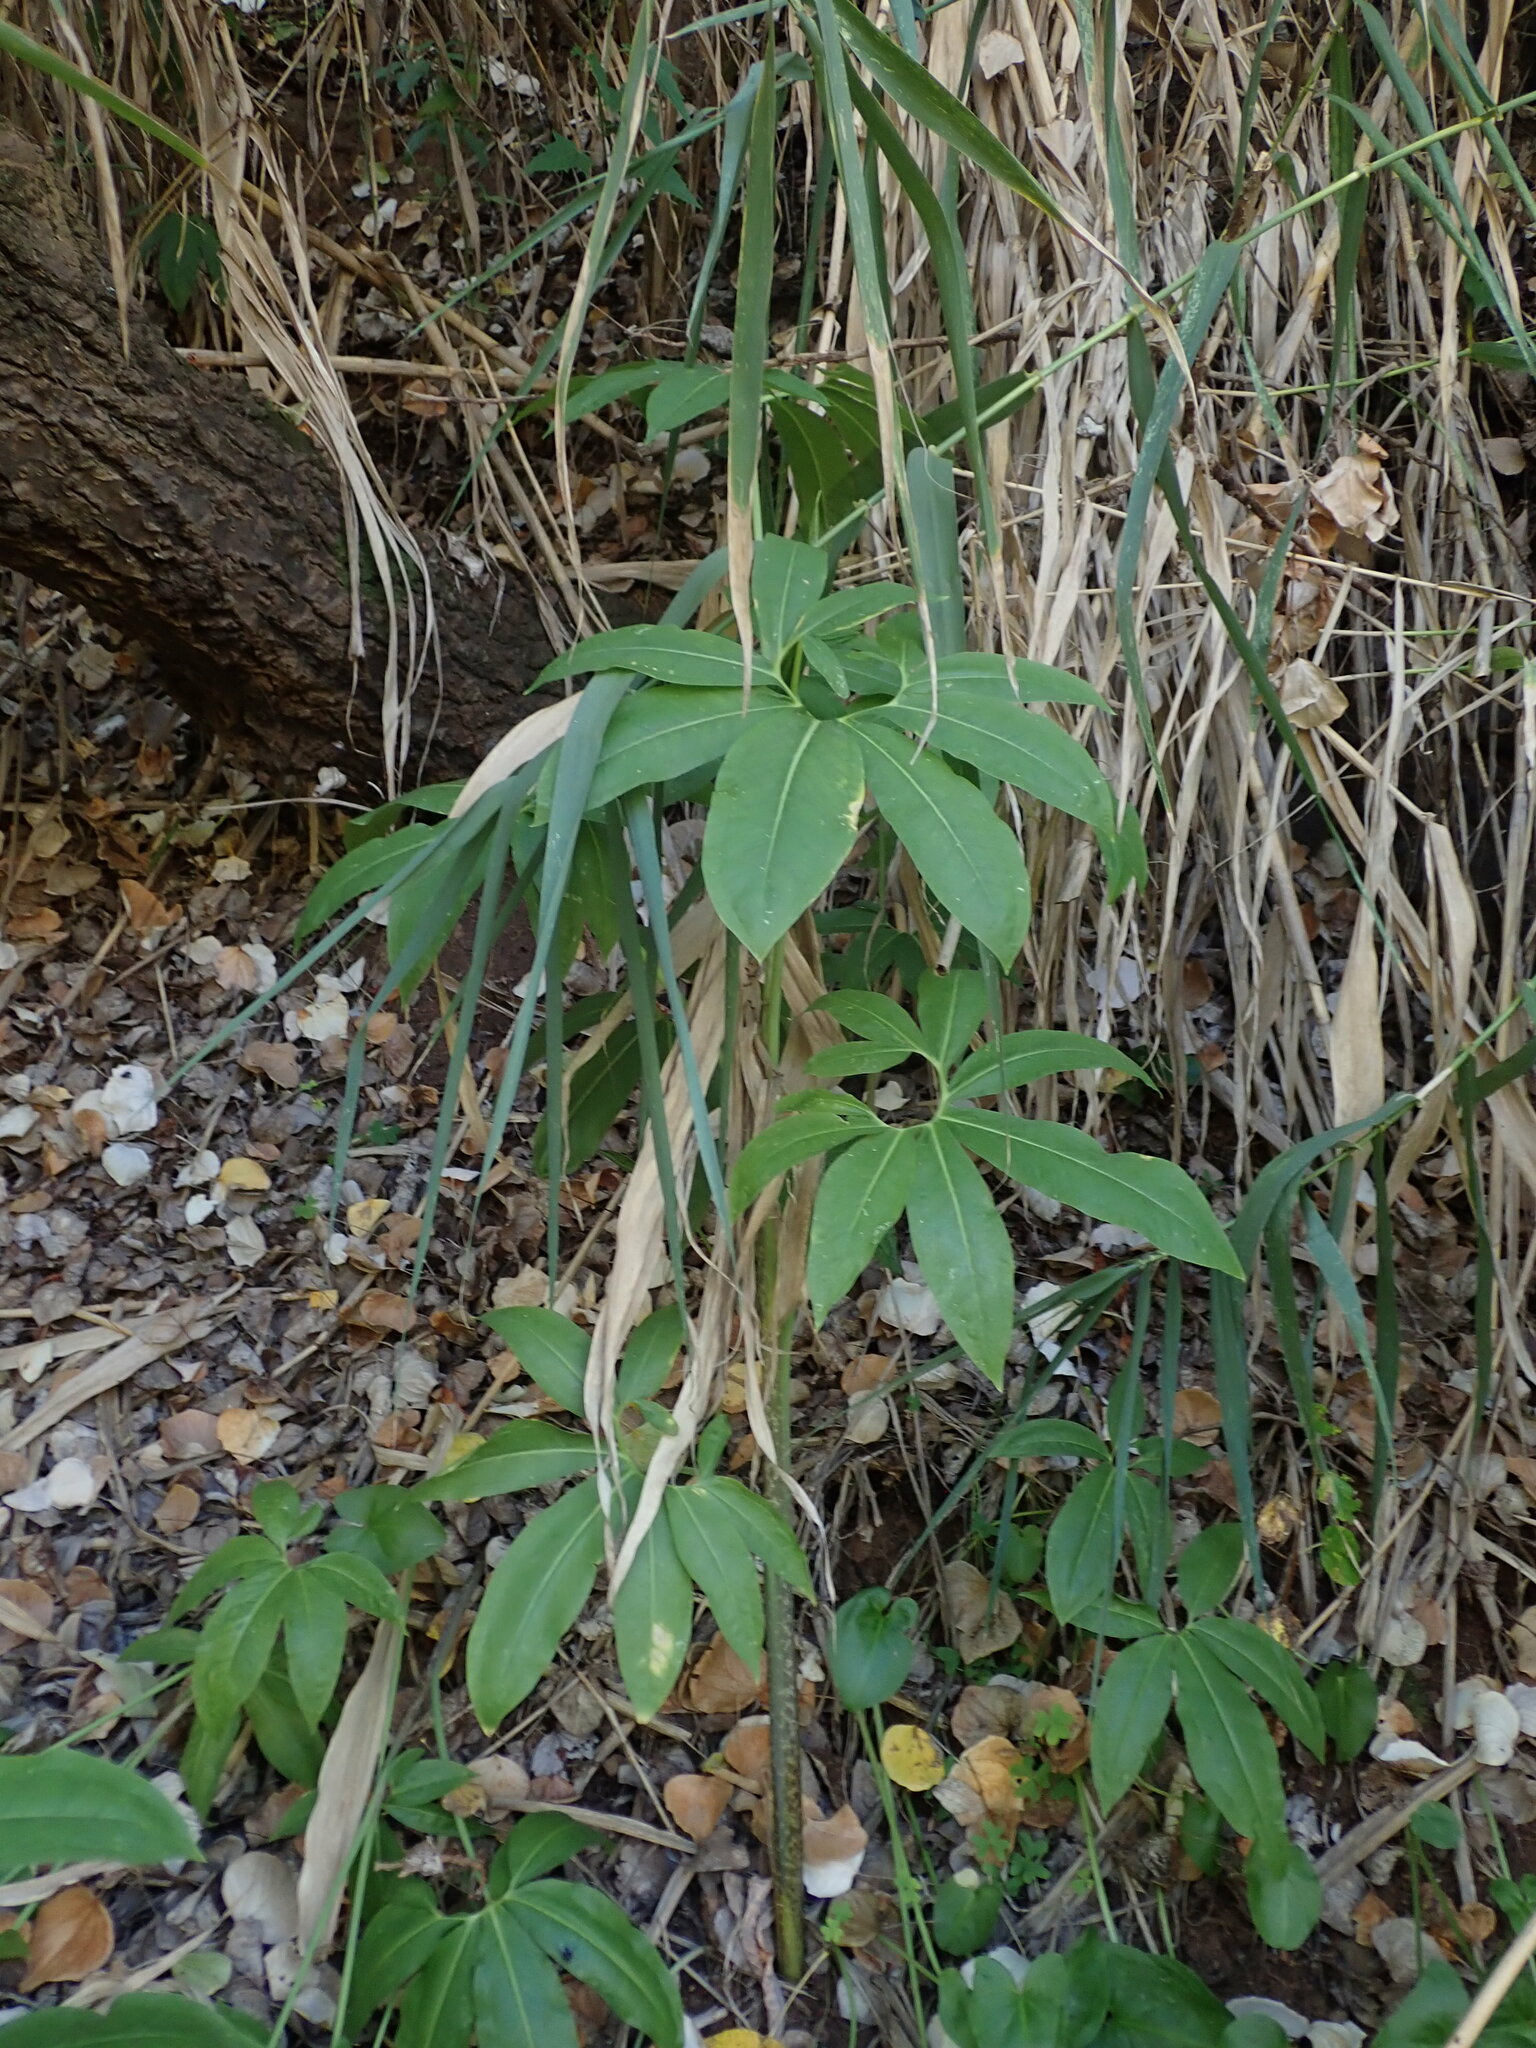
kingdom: Plantae
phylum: Tracheophyta
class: Liliopsida
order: Alismatales
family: Araceae
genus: Dracunculus
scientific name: Dracunculus canariensis
